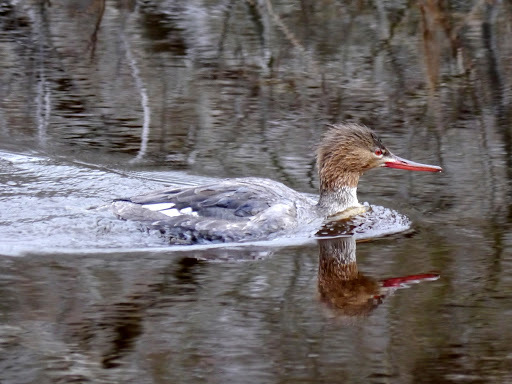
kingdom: Animalia
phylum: Chordata
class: Aves
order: Anseriformes
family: Anatidae
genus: Mergus
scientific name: Mergus serrator
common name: Red-breasted merganser
